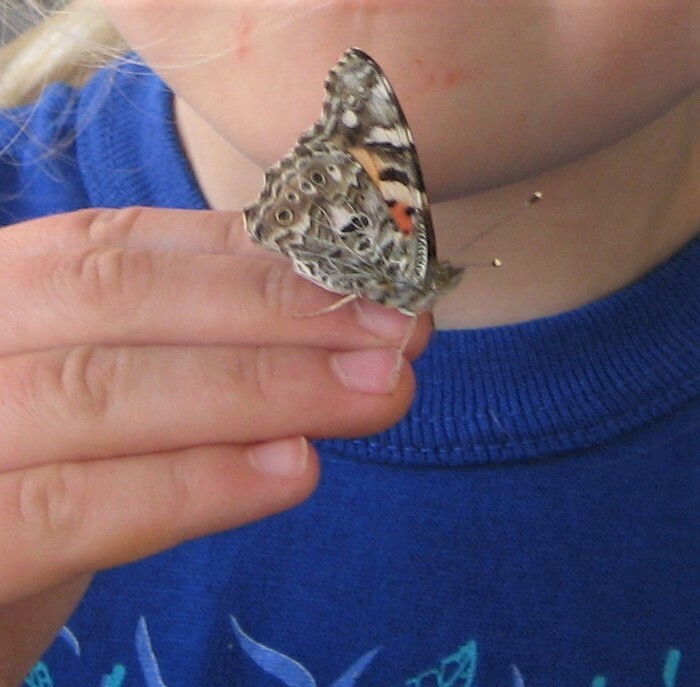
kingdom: Animalia
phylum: Arthropoda
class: Insecta
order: Lepidoptera
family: Nymphalidae
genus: Vanessa
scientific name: Vanessa cardui
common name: Painted lady
